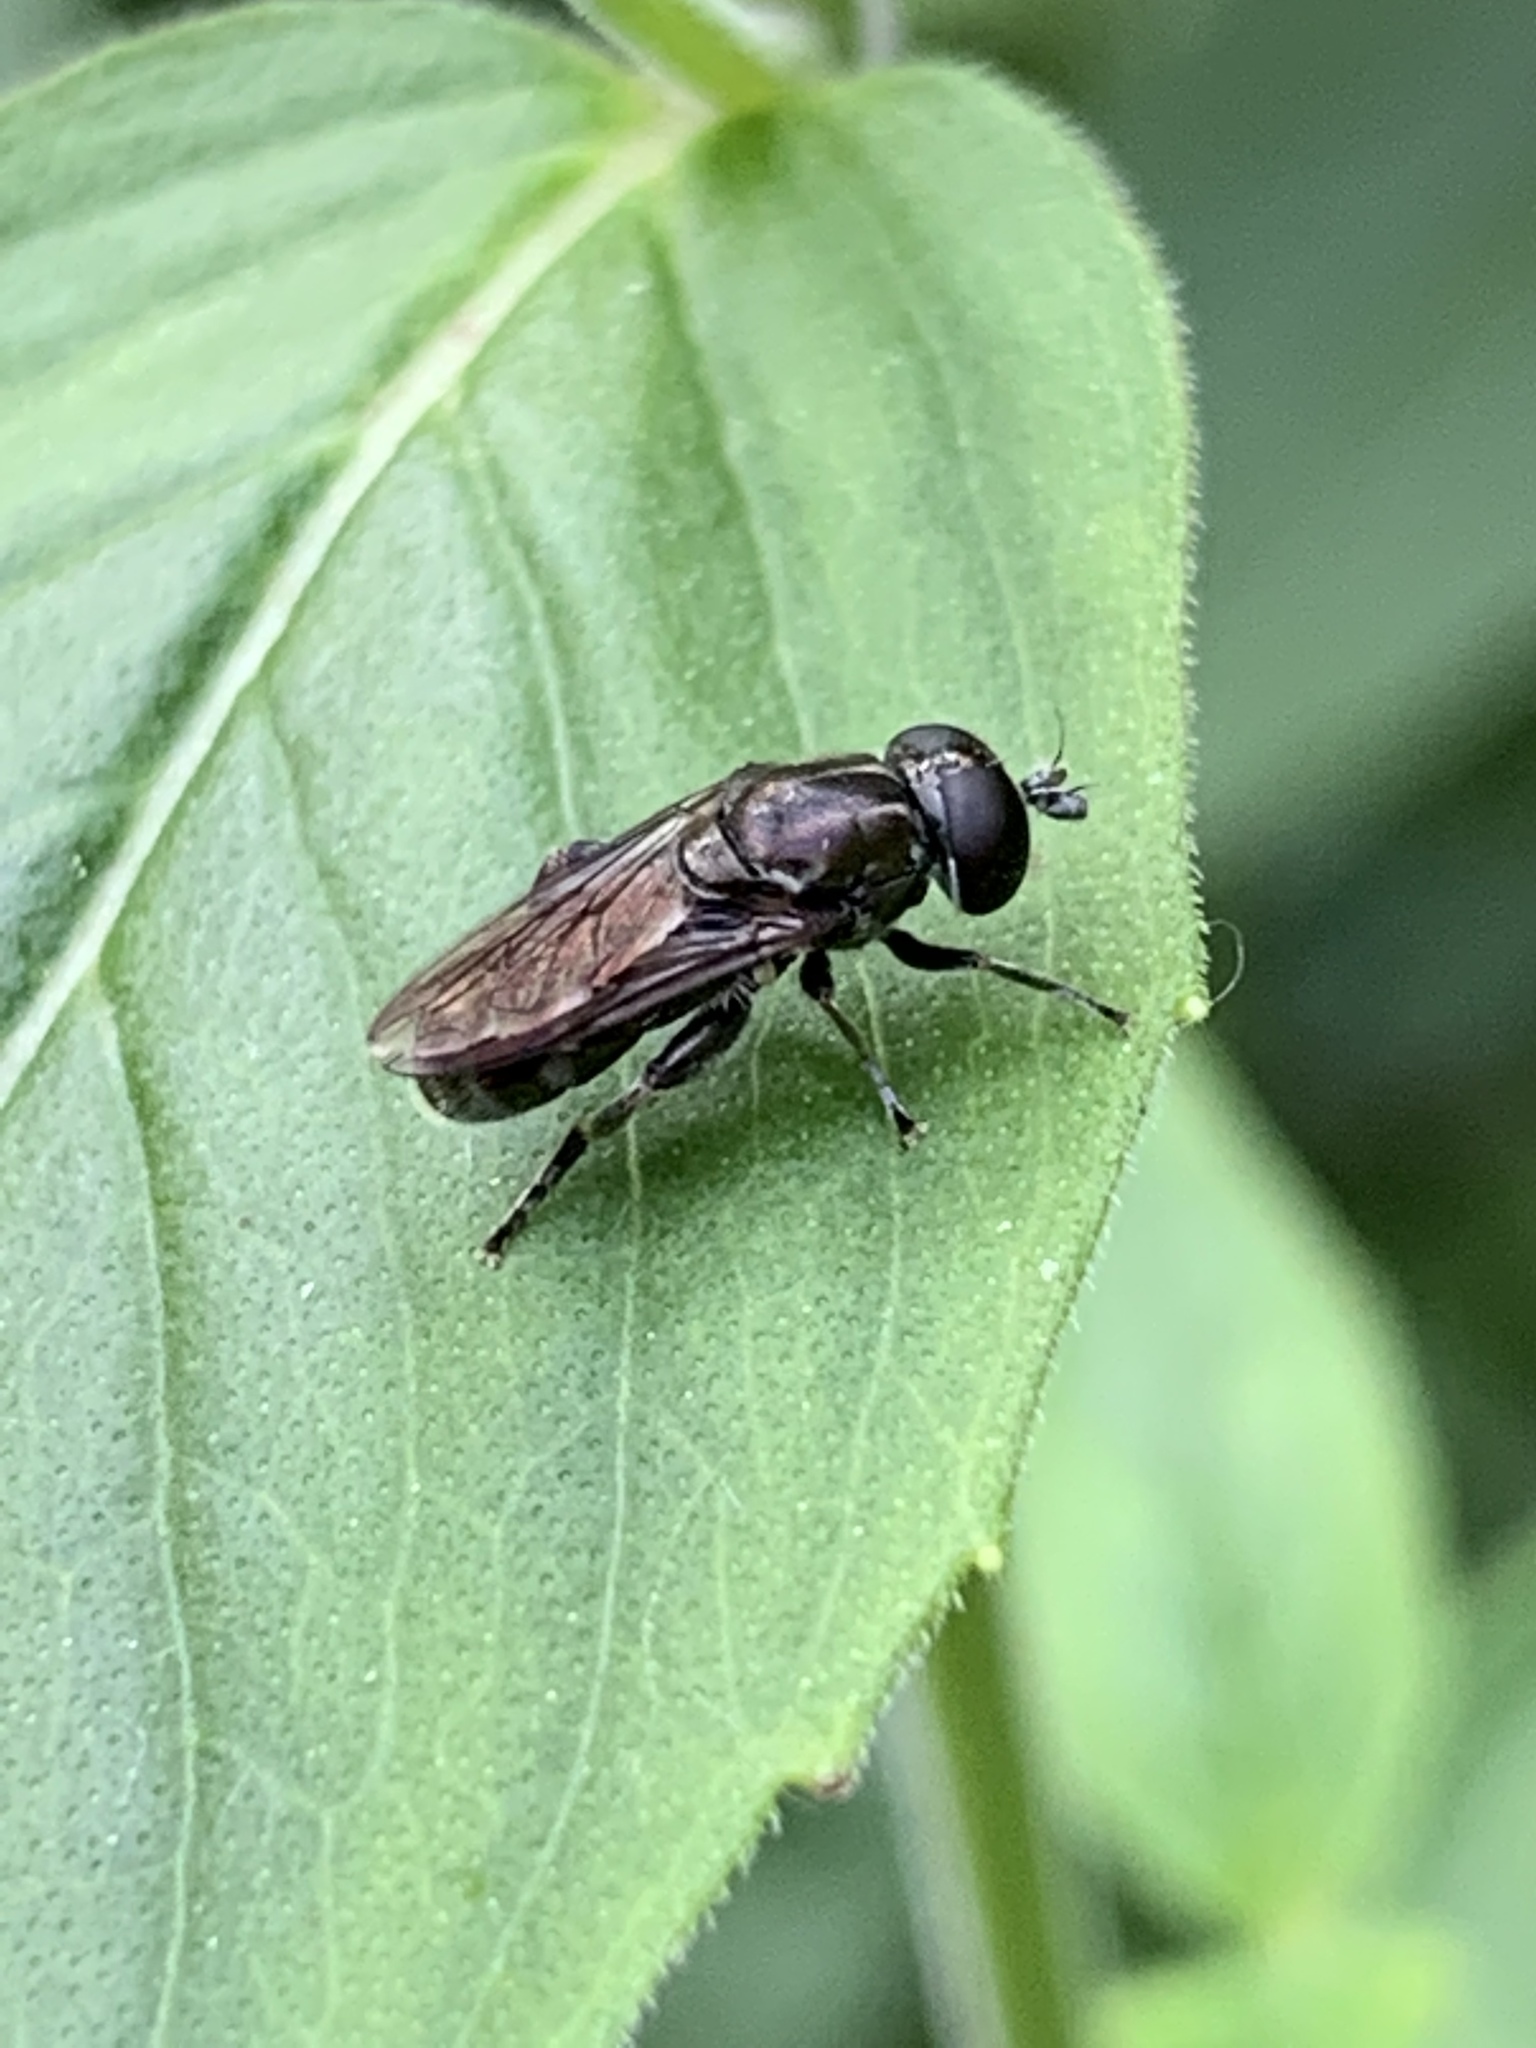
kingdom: Animalia
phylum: Arthropoda
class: Insecta
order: Diptera
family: Syrphidae
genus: Eumerus
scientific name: Eumerus
